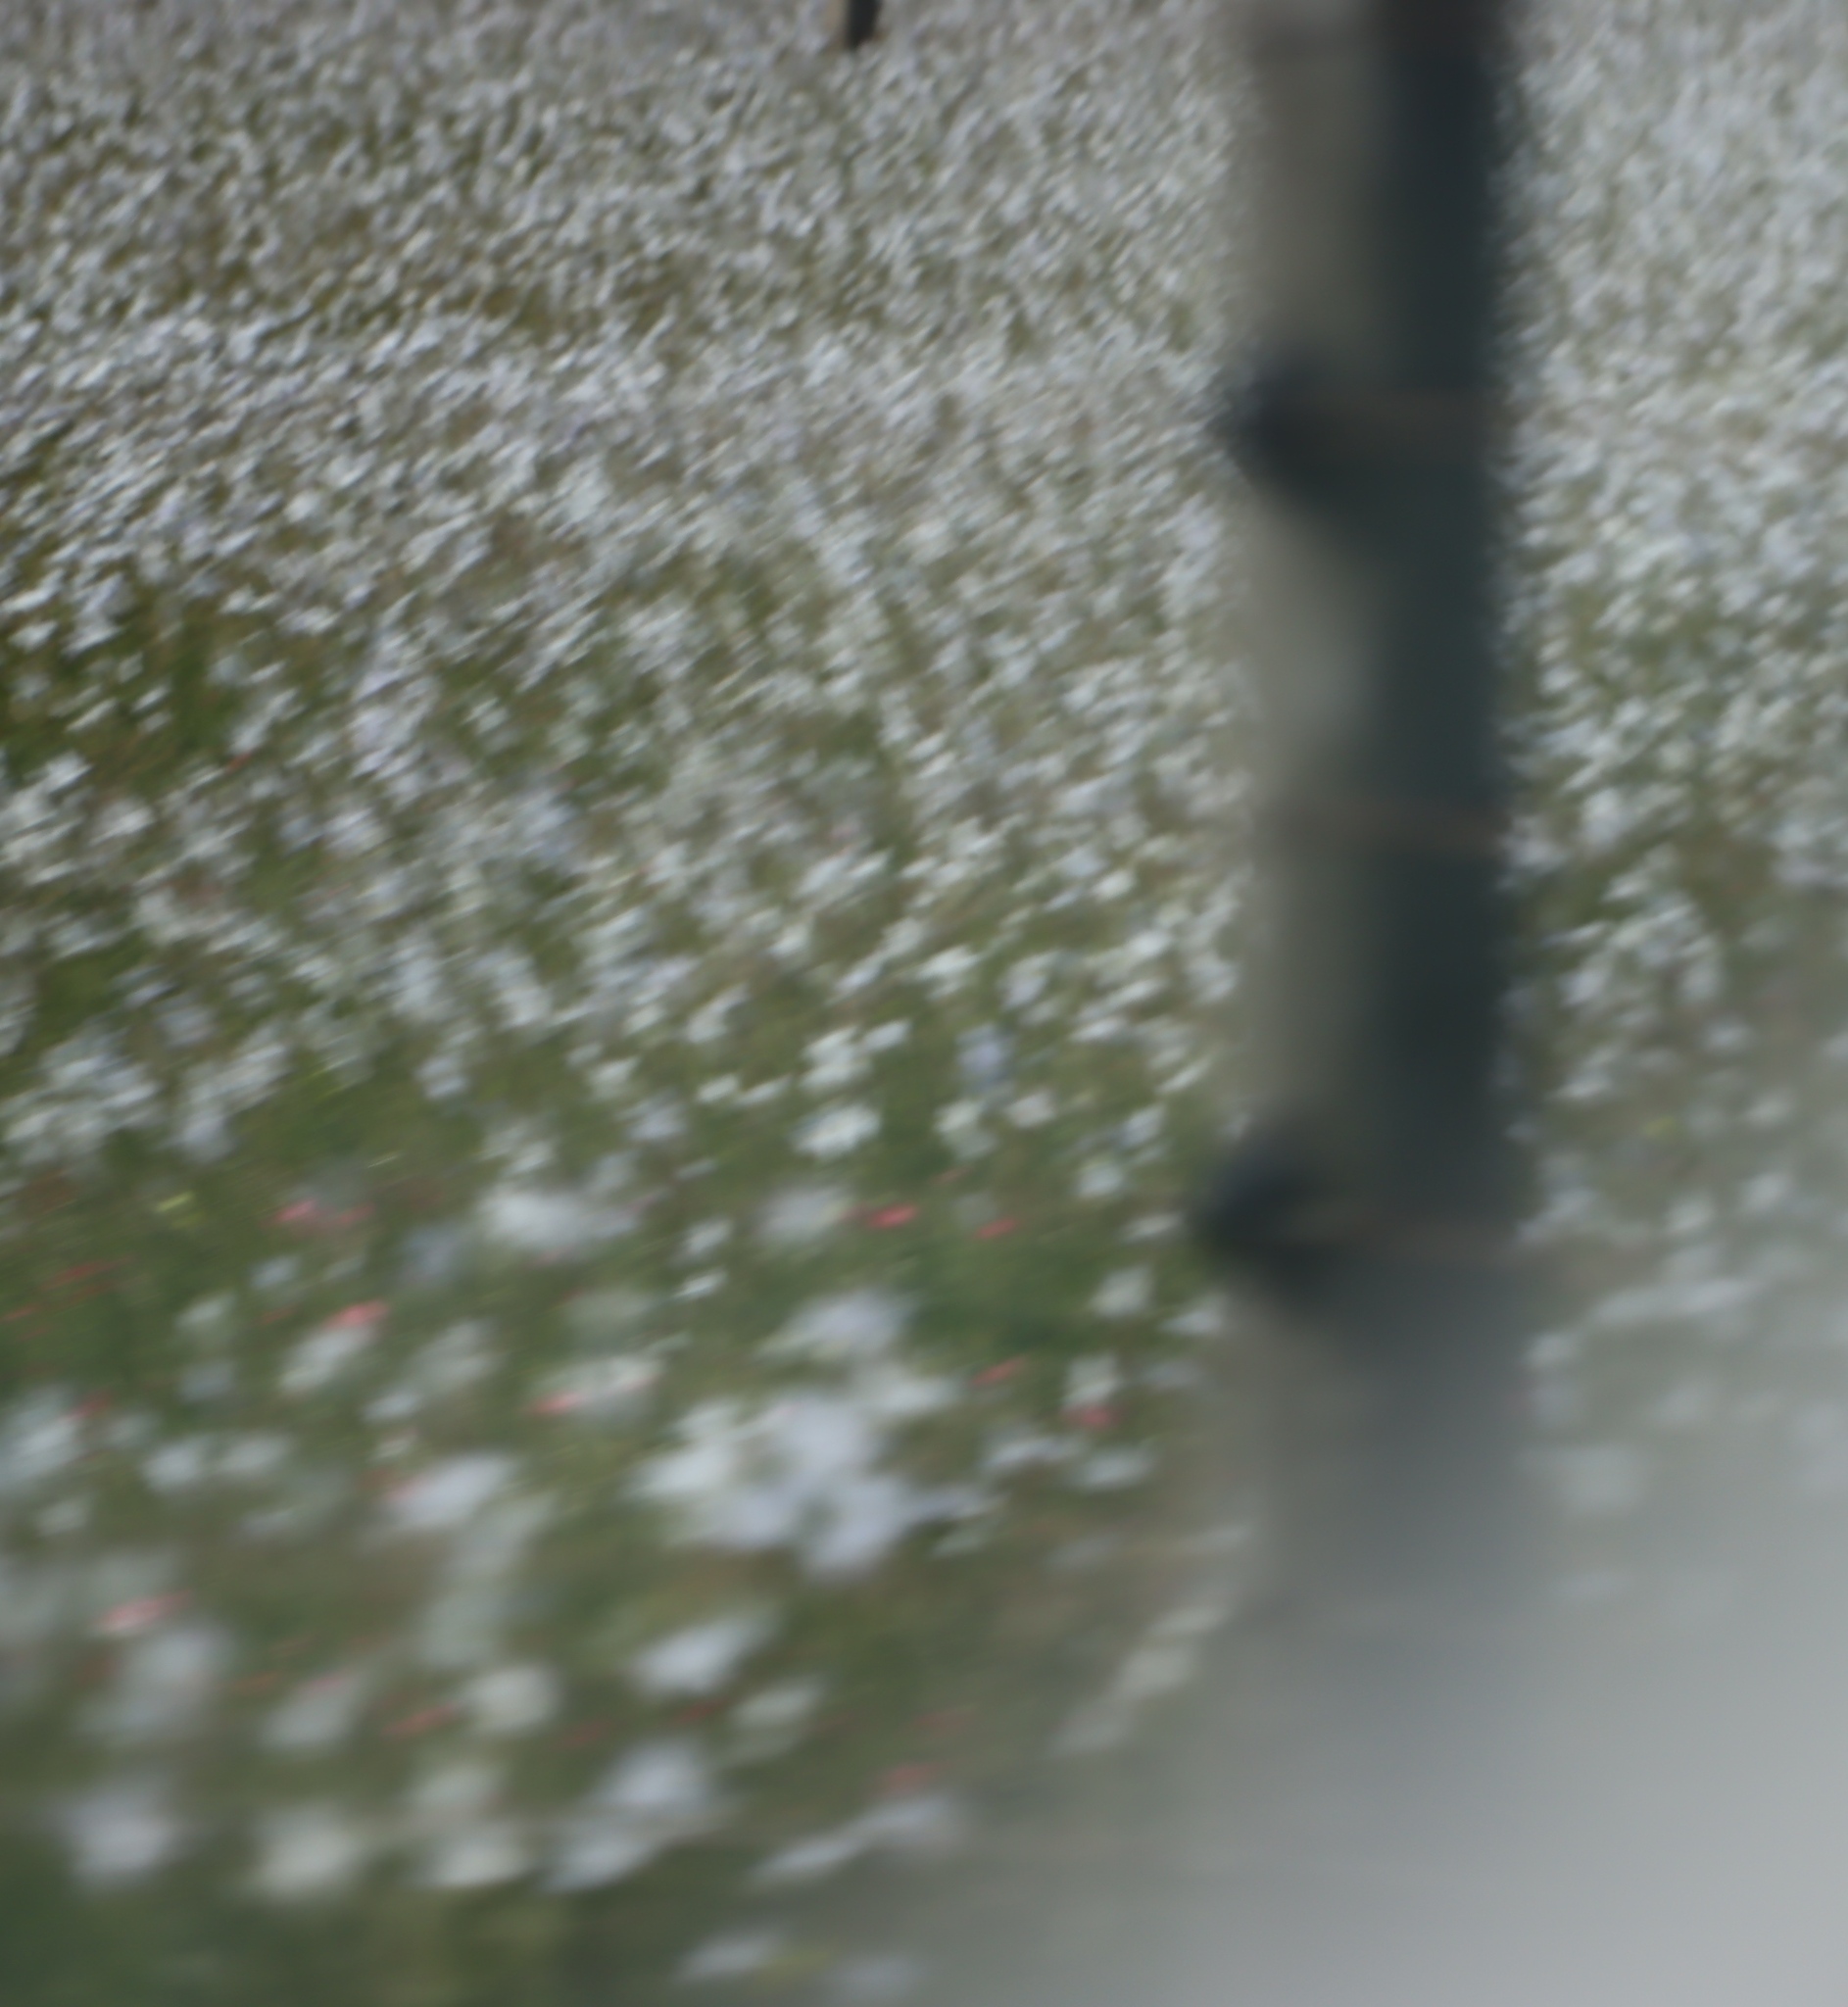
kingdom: Plantae
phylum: Tracheophyta
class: Liliopsida
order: Asparagales
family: Iridaceae
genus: Moraea
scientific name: Moraea polyanthos
